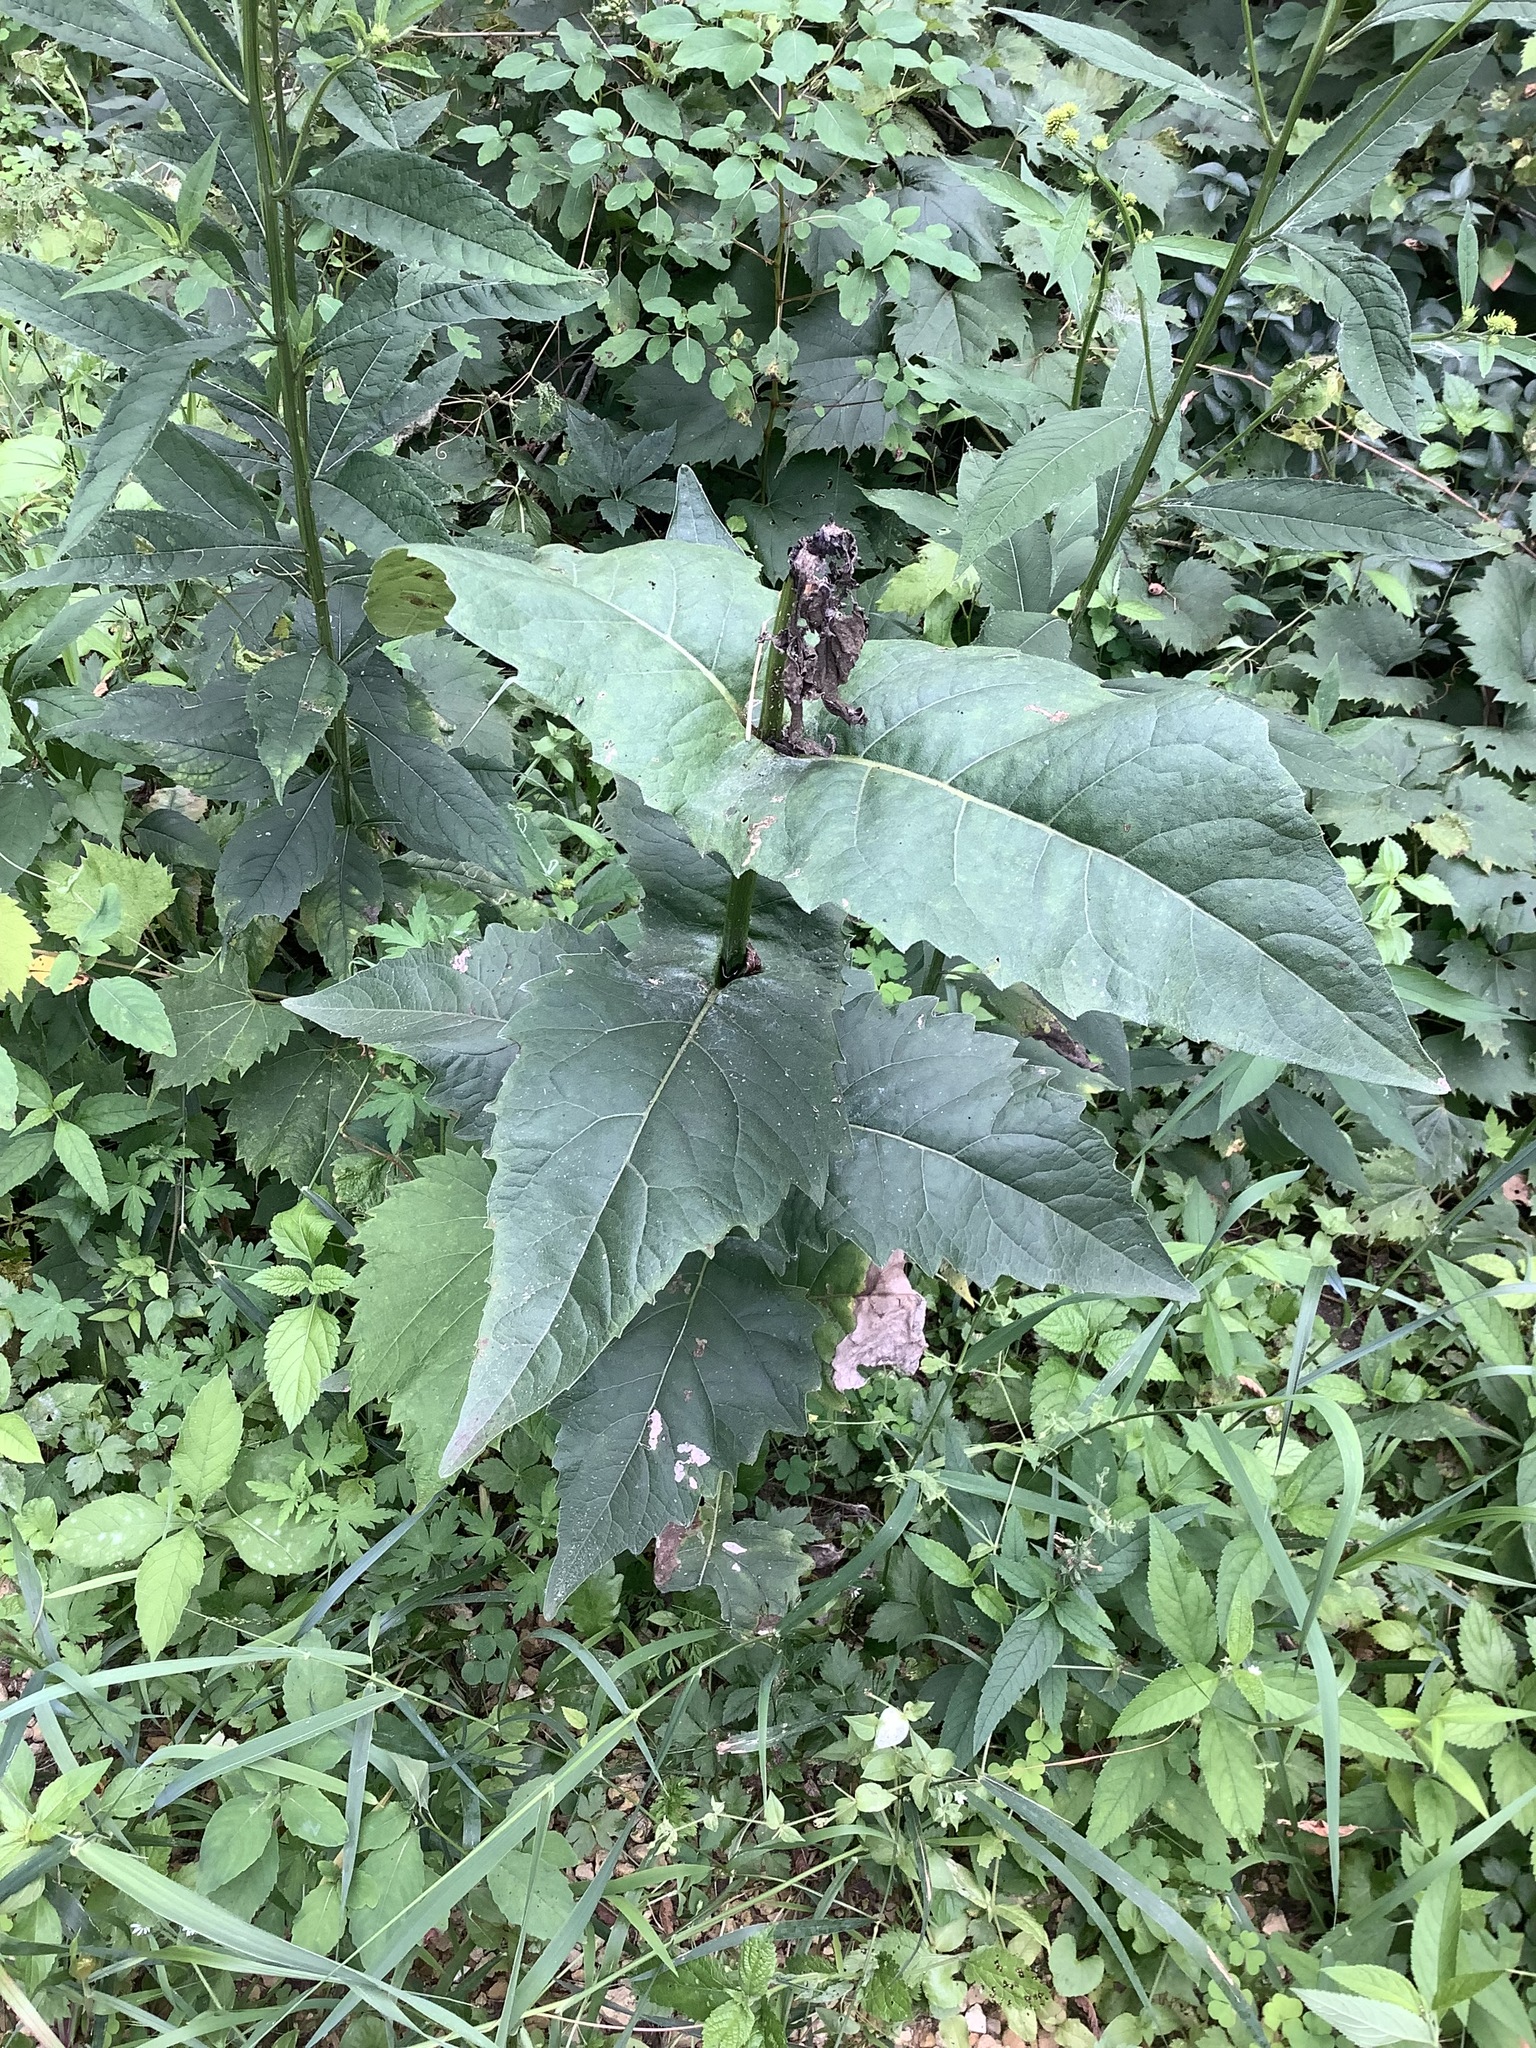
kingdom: Plantae
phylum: Tracheophyta
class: Magnoliopsida
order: Asterales
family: Asteraceae
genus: Silphium
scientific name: Silphium perfoliatum
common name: Cup-plant
